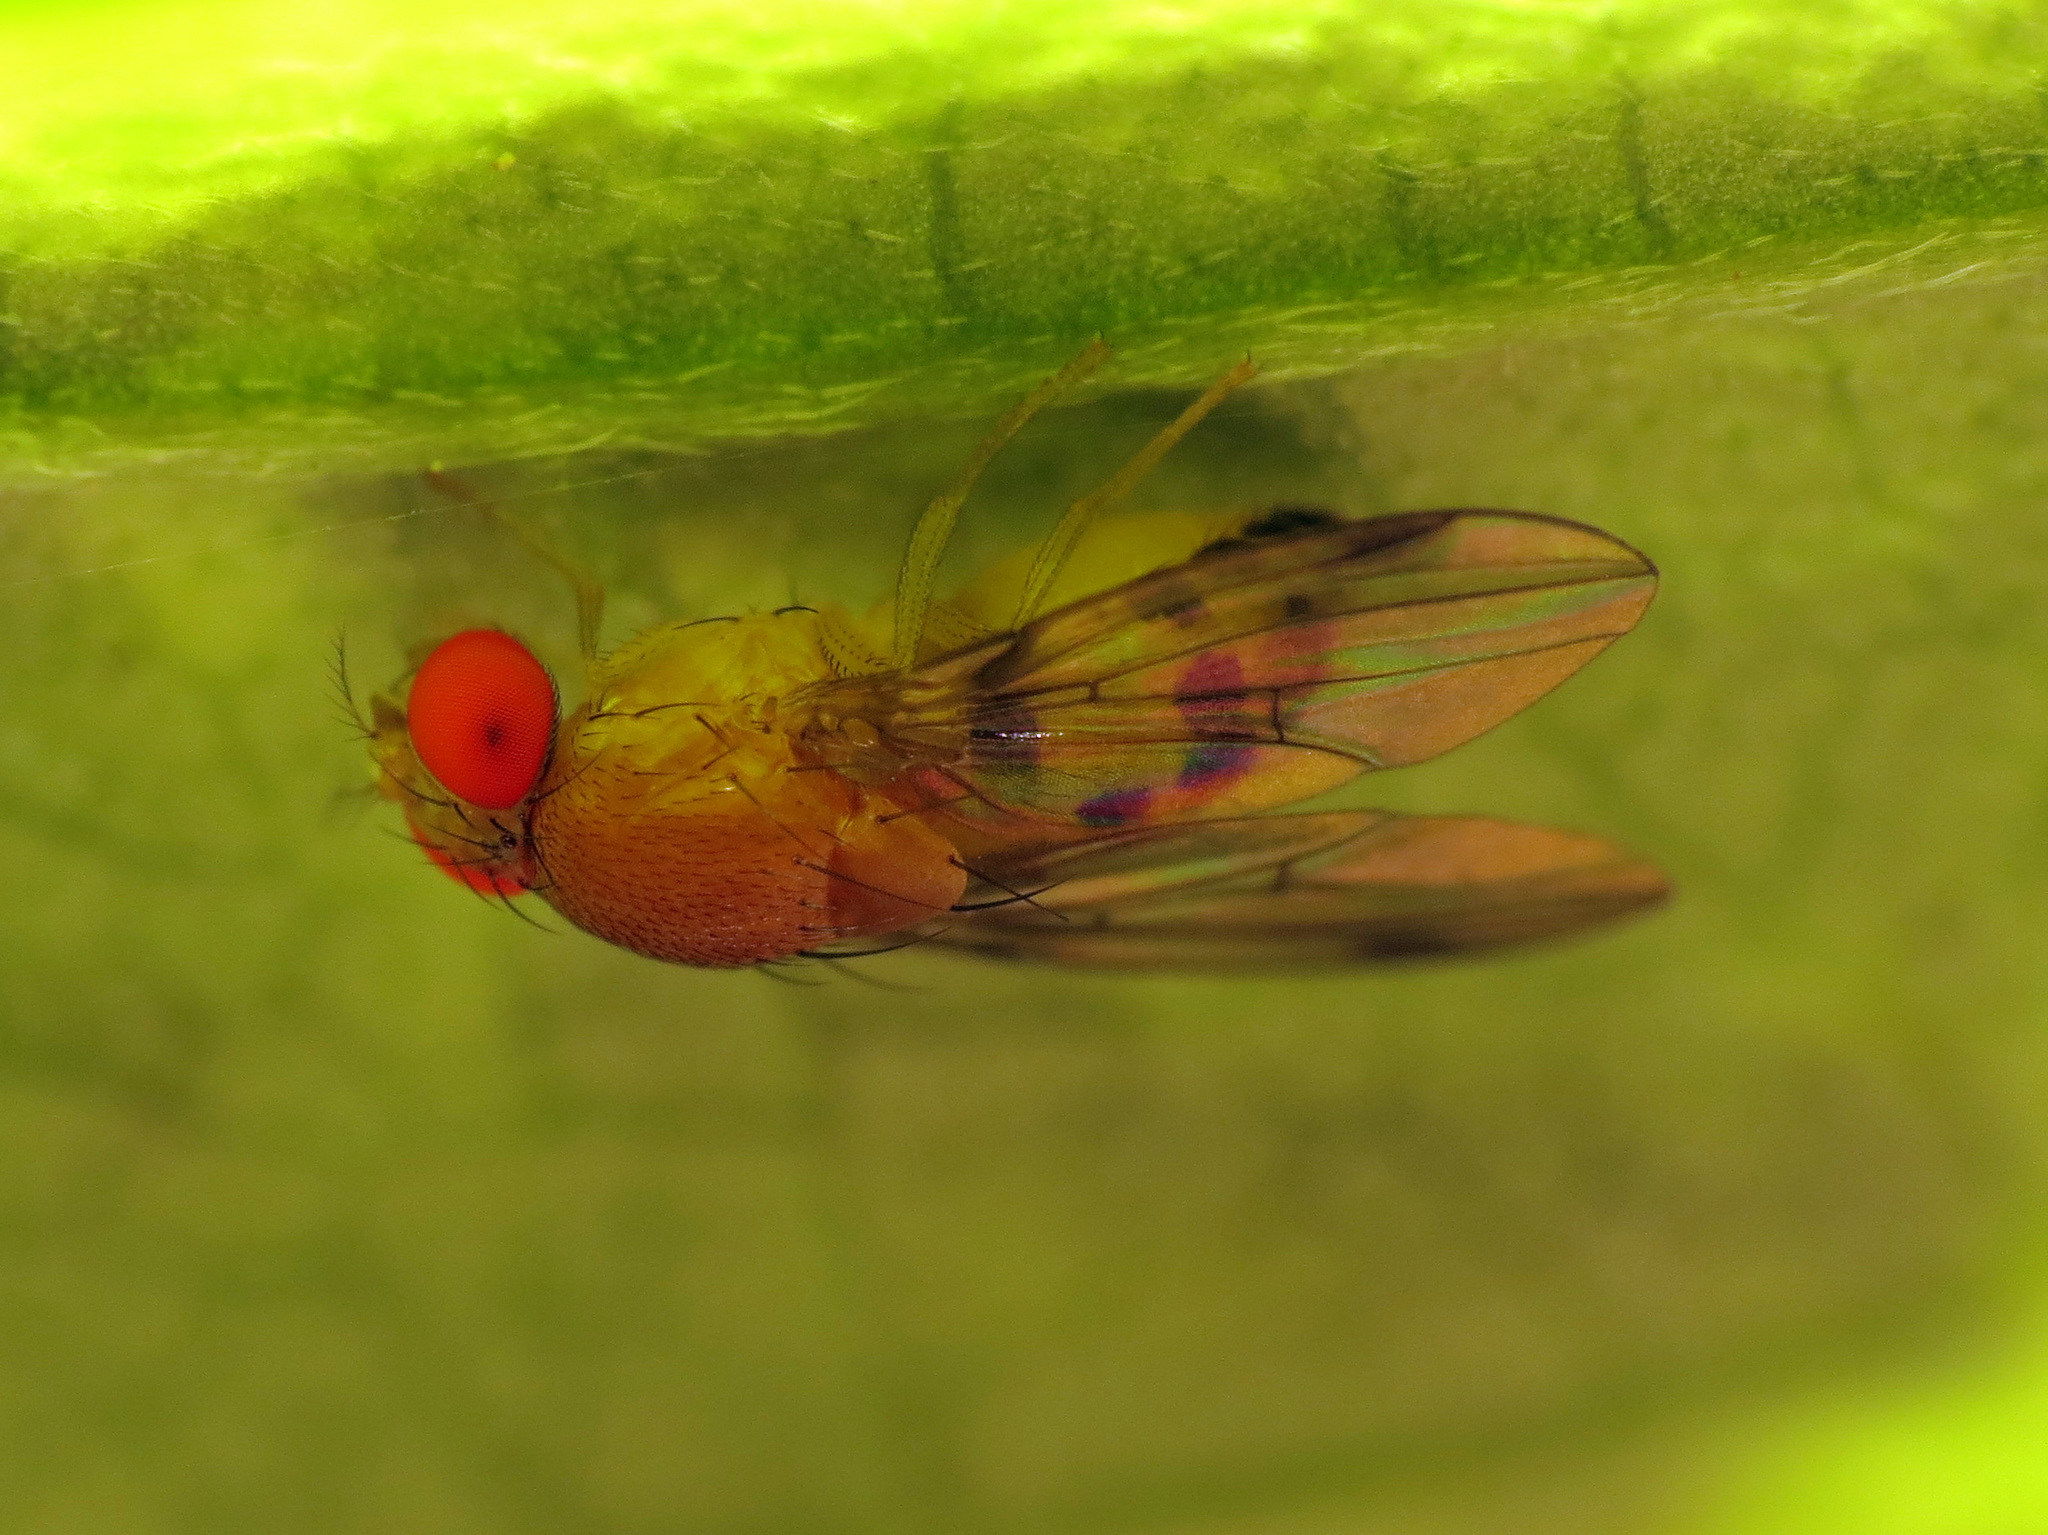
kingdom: Animalia
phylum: Arthropoda
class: Insecta
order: Diptera
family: Drosophilidae
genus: Leucophenga
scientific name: Leucophenga varia
